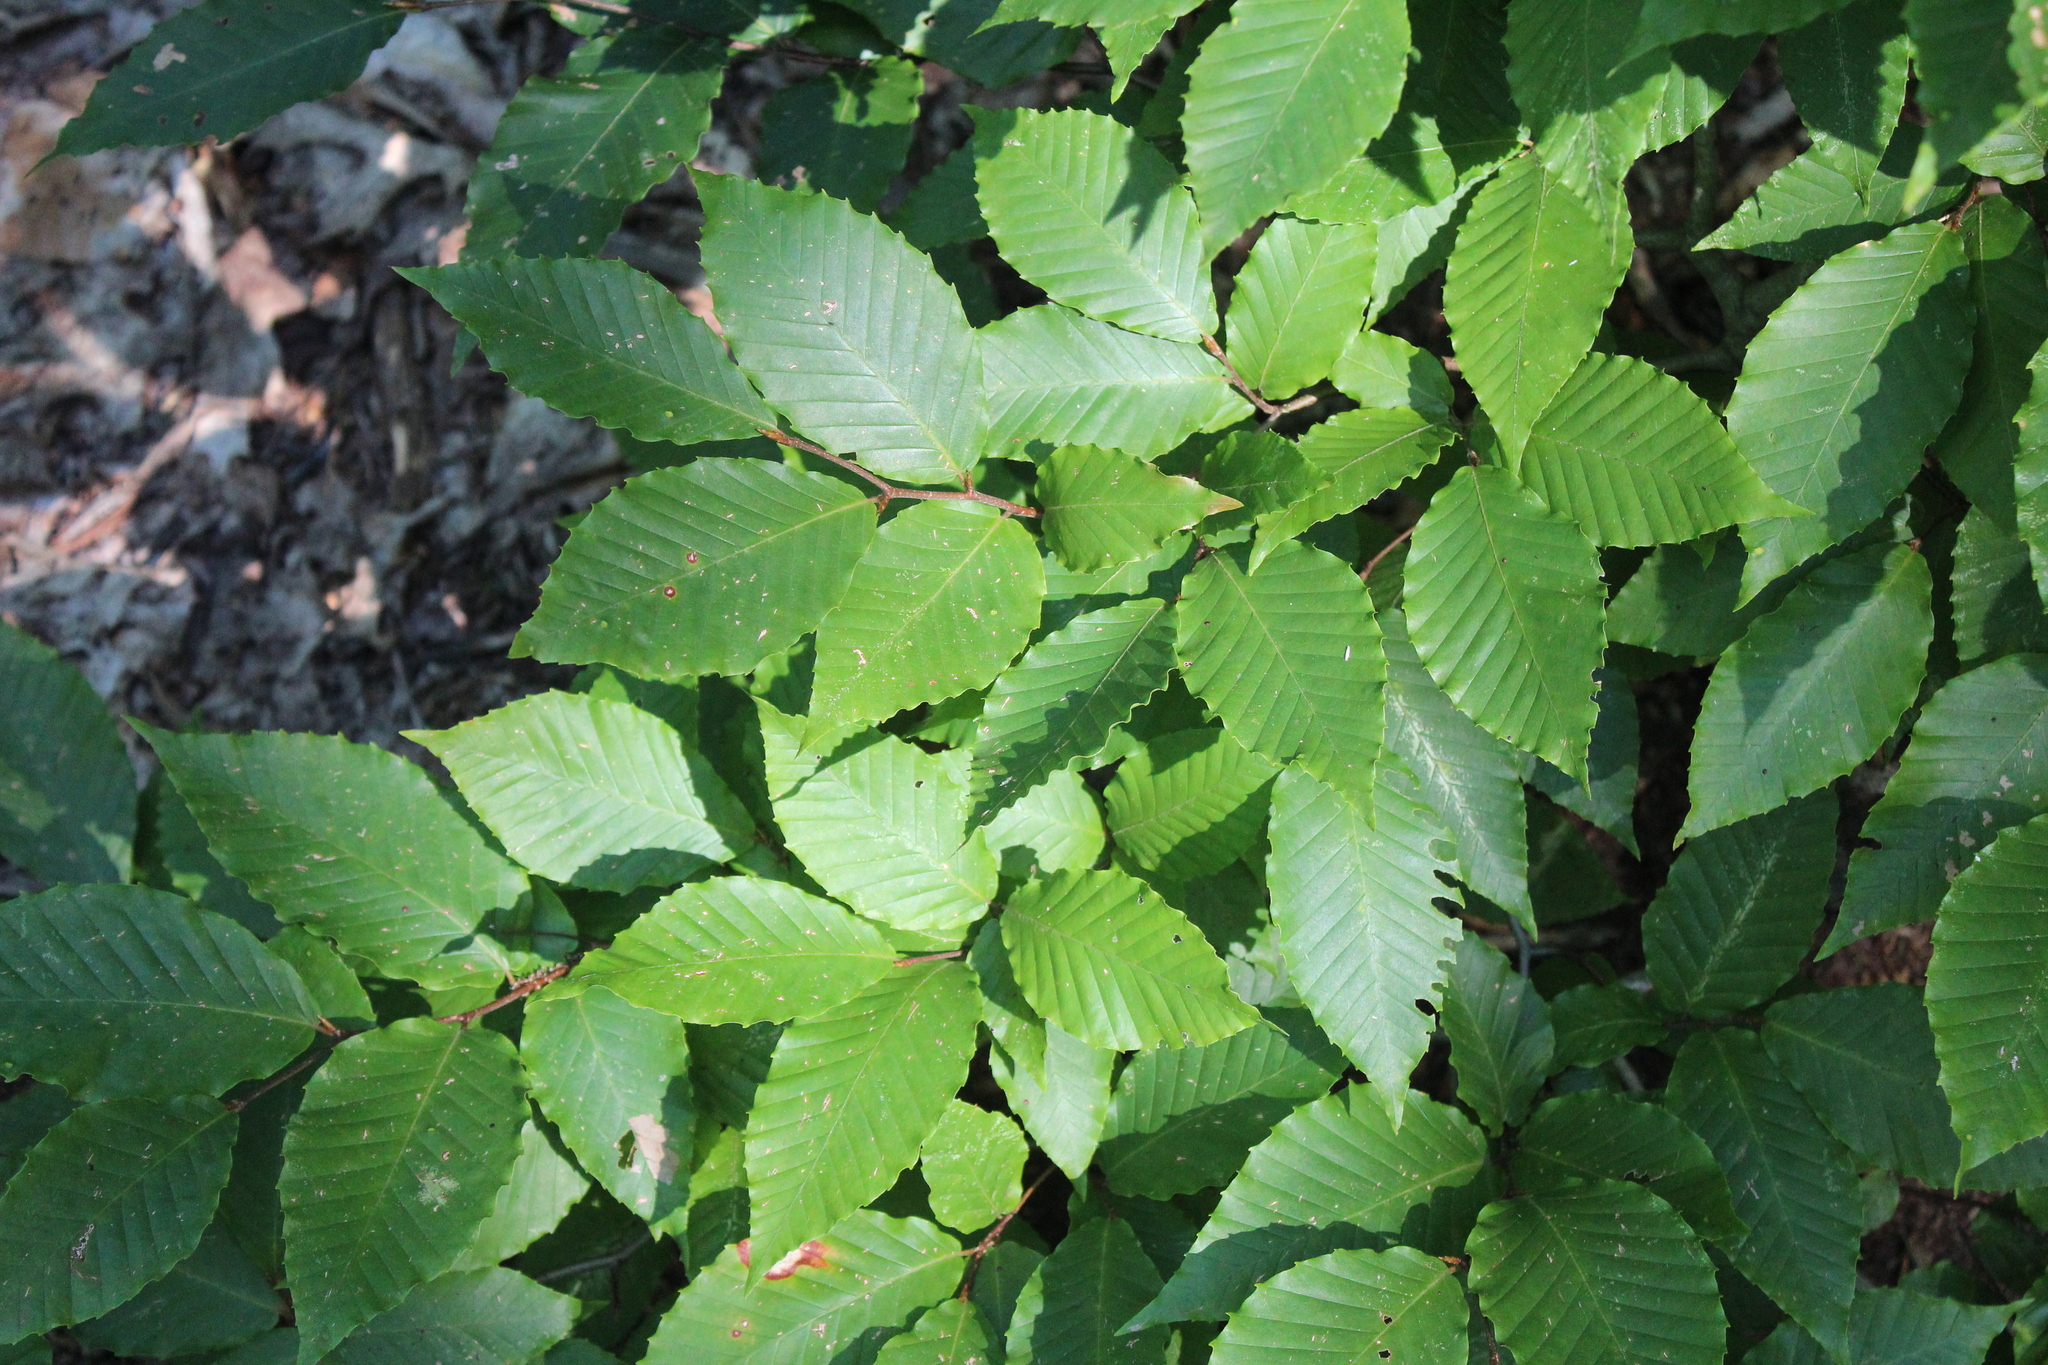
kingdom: Plantae
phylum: Tracheophyta
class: Magnoliopsida
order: Fagales
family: Fagaceae
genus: Fagus
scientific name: Fagus grandifolia
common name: American beech
